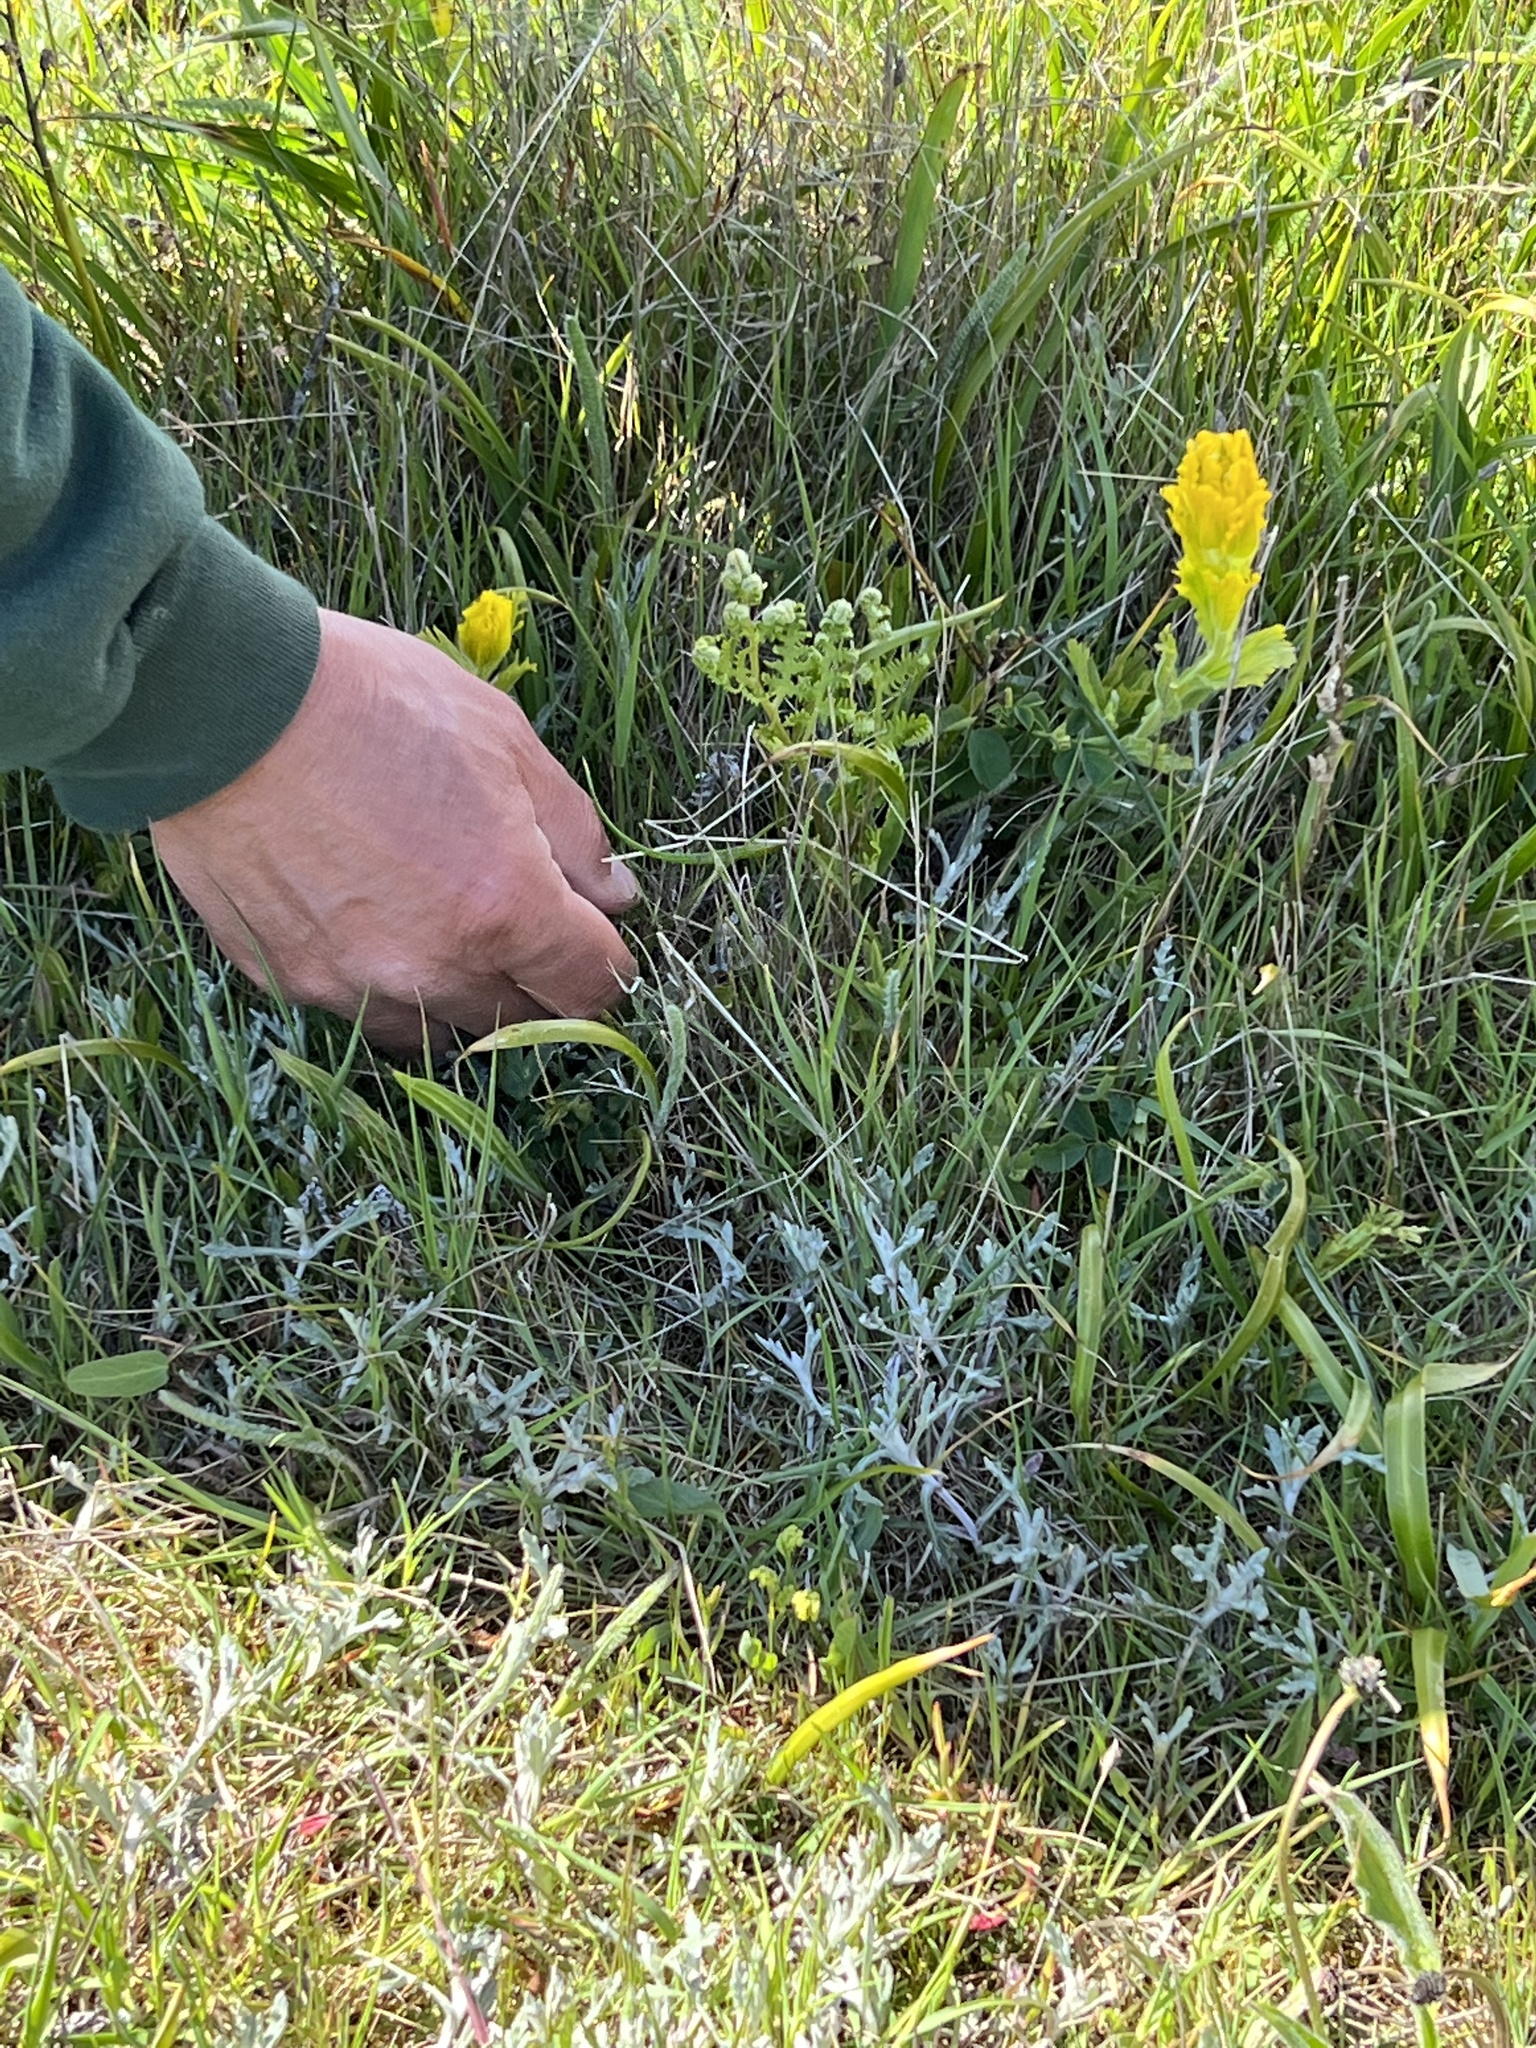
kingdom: Plantae
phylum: Tracheophyta
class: Magnoliopsida
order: Lamiales
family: Orobanchaceae
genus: Castilleja
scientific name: Castilleja levisecta
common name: Golden paintbrush
